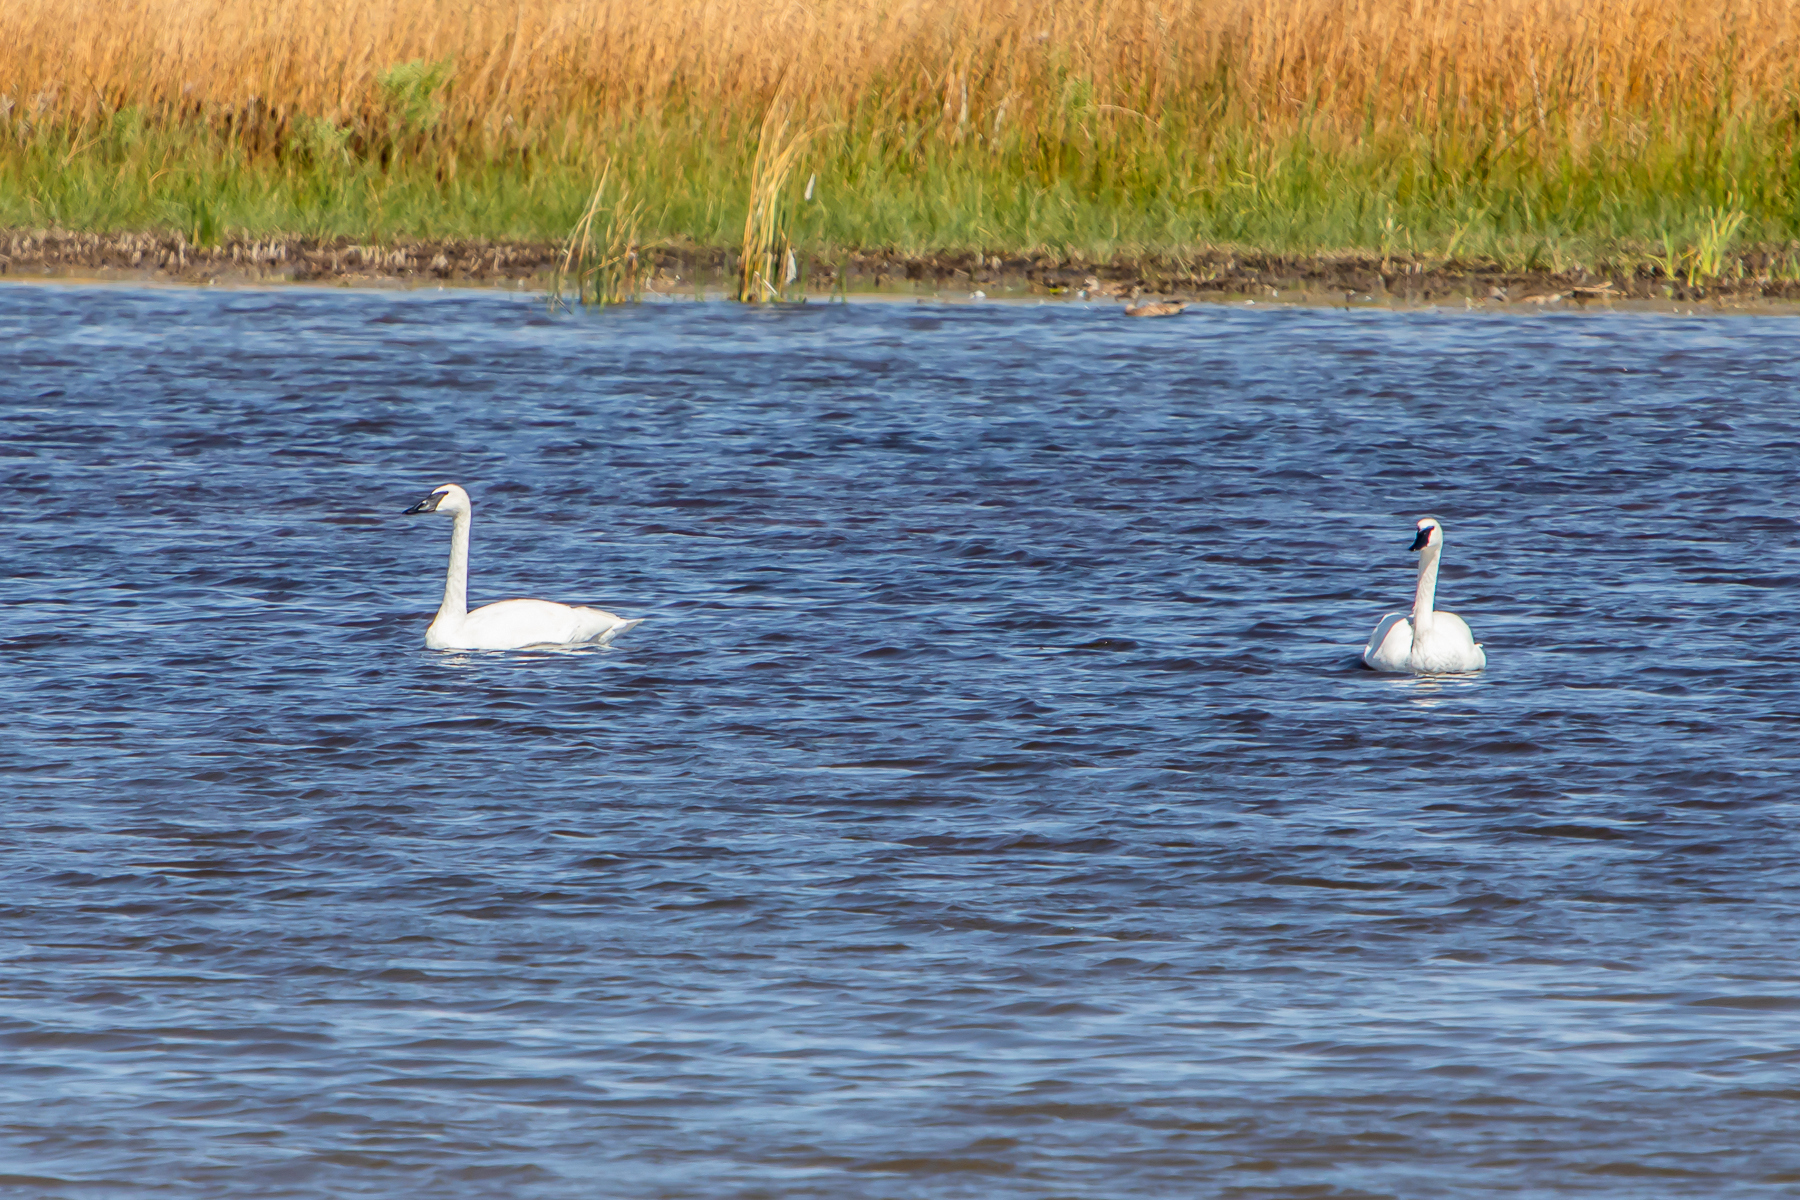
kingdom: Animalia
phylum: Chordata
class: Aves
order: Anseriformes
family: Anatidae
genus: Cygnus
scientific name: Cygnus buccinator
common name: Trumpeter swan
